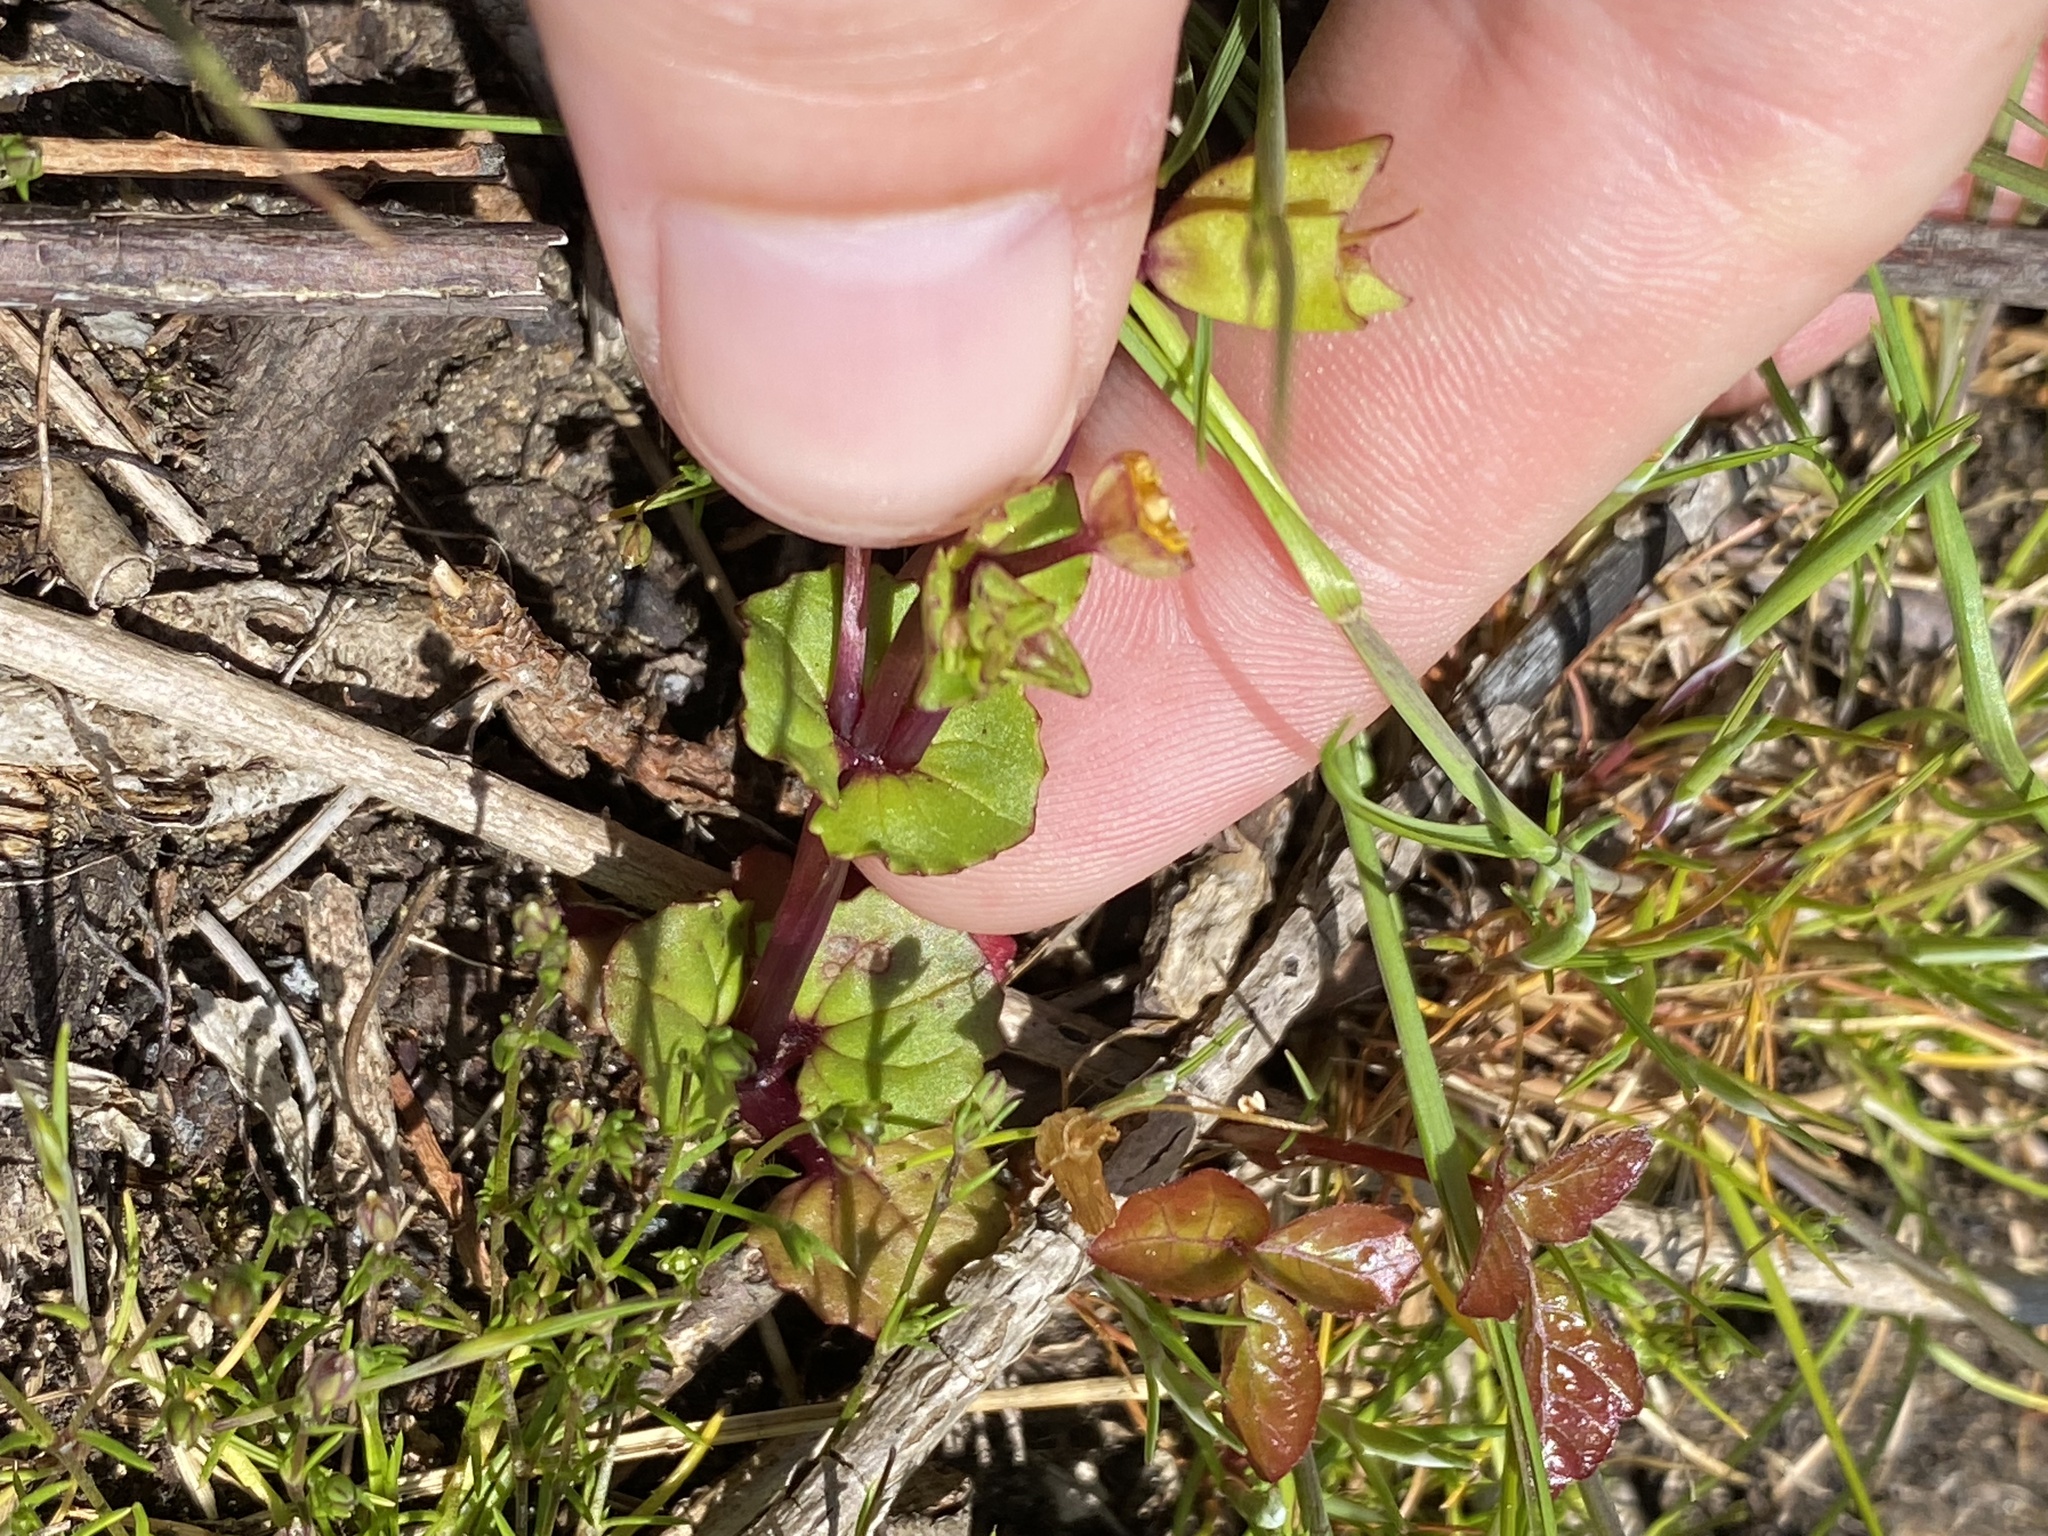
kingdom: Plantae
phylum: Tracheophyta
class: Magnoliopsida
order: Lamiales
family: Phrymaceae
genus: Erythranthe
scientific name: Erythranthe grandis
